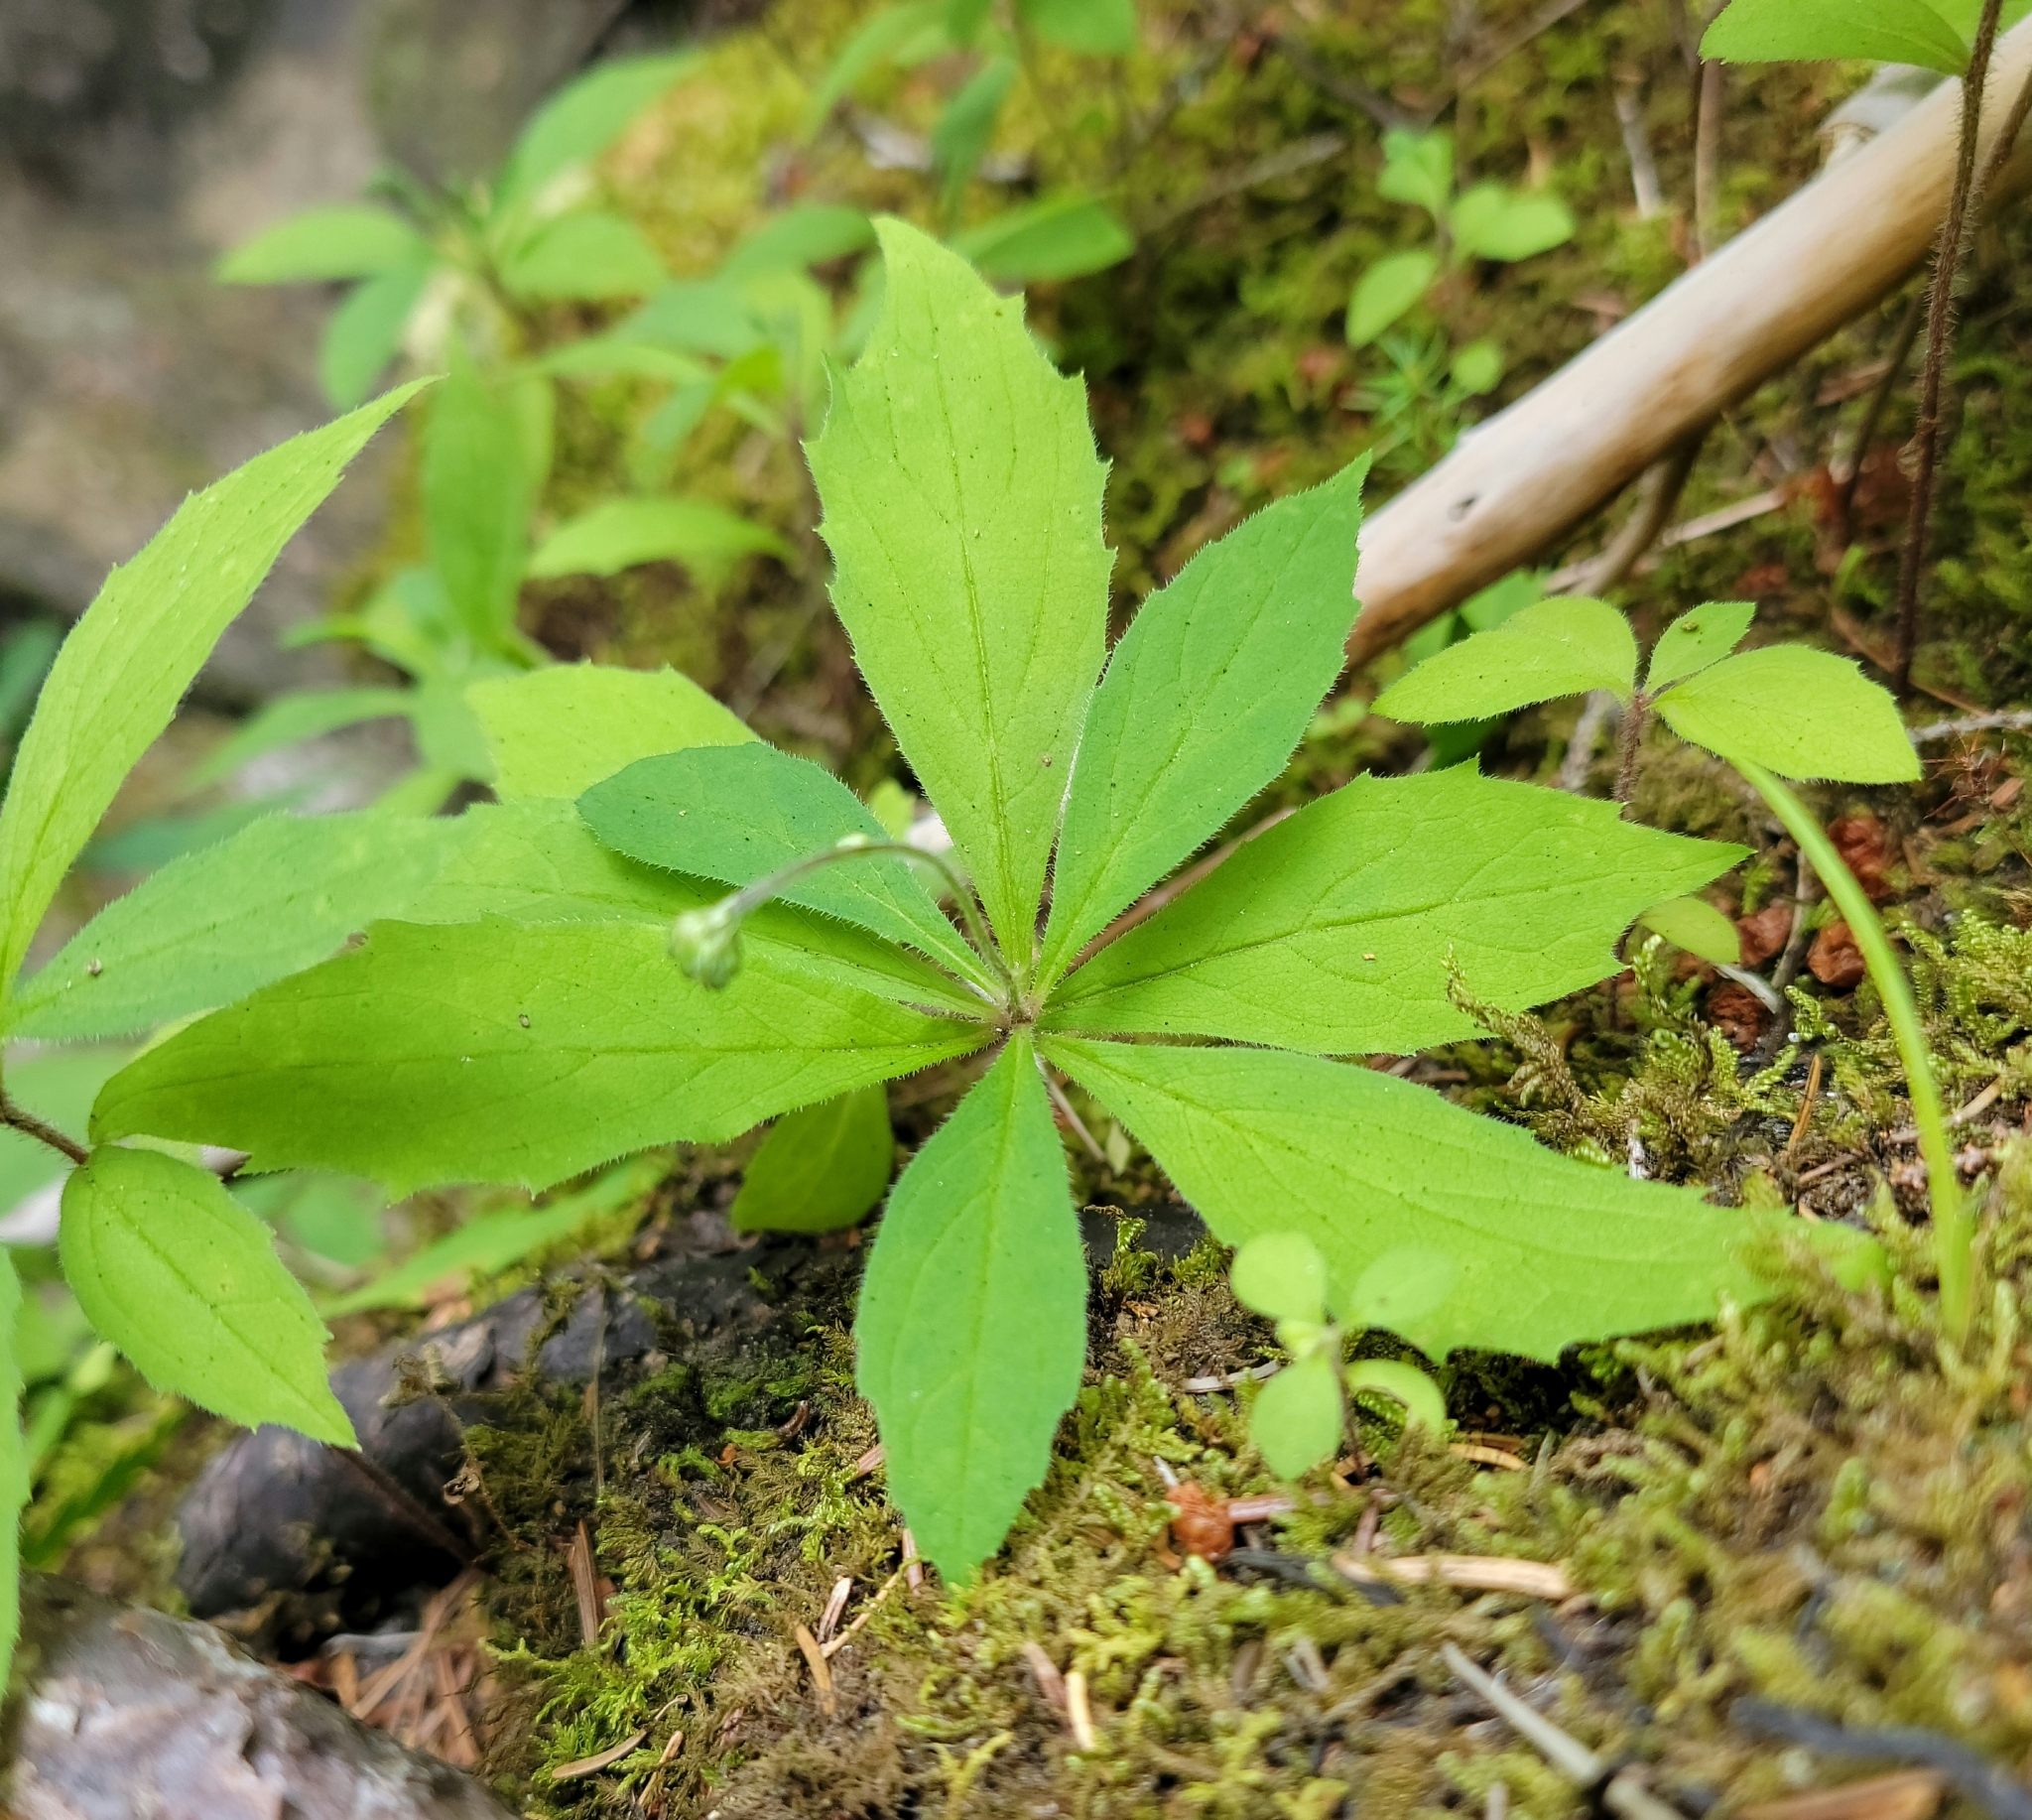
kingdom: Plantae
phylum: Tracheophyta
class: Magnoliopsida
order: Asterales
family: Asteraceae
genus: Oclemena
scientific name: Oclemena acuminata
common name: Mountain aster
